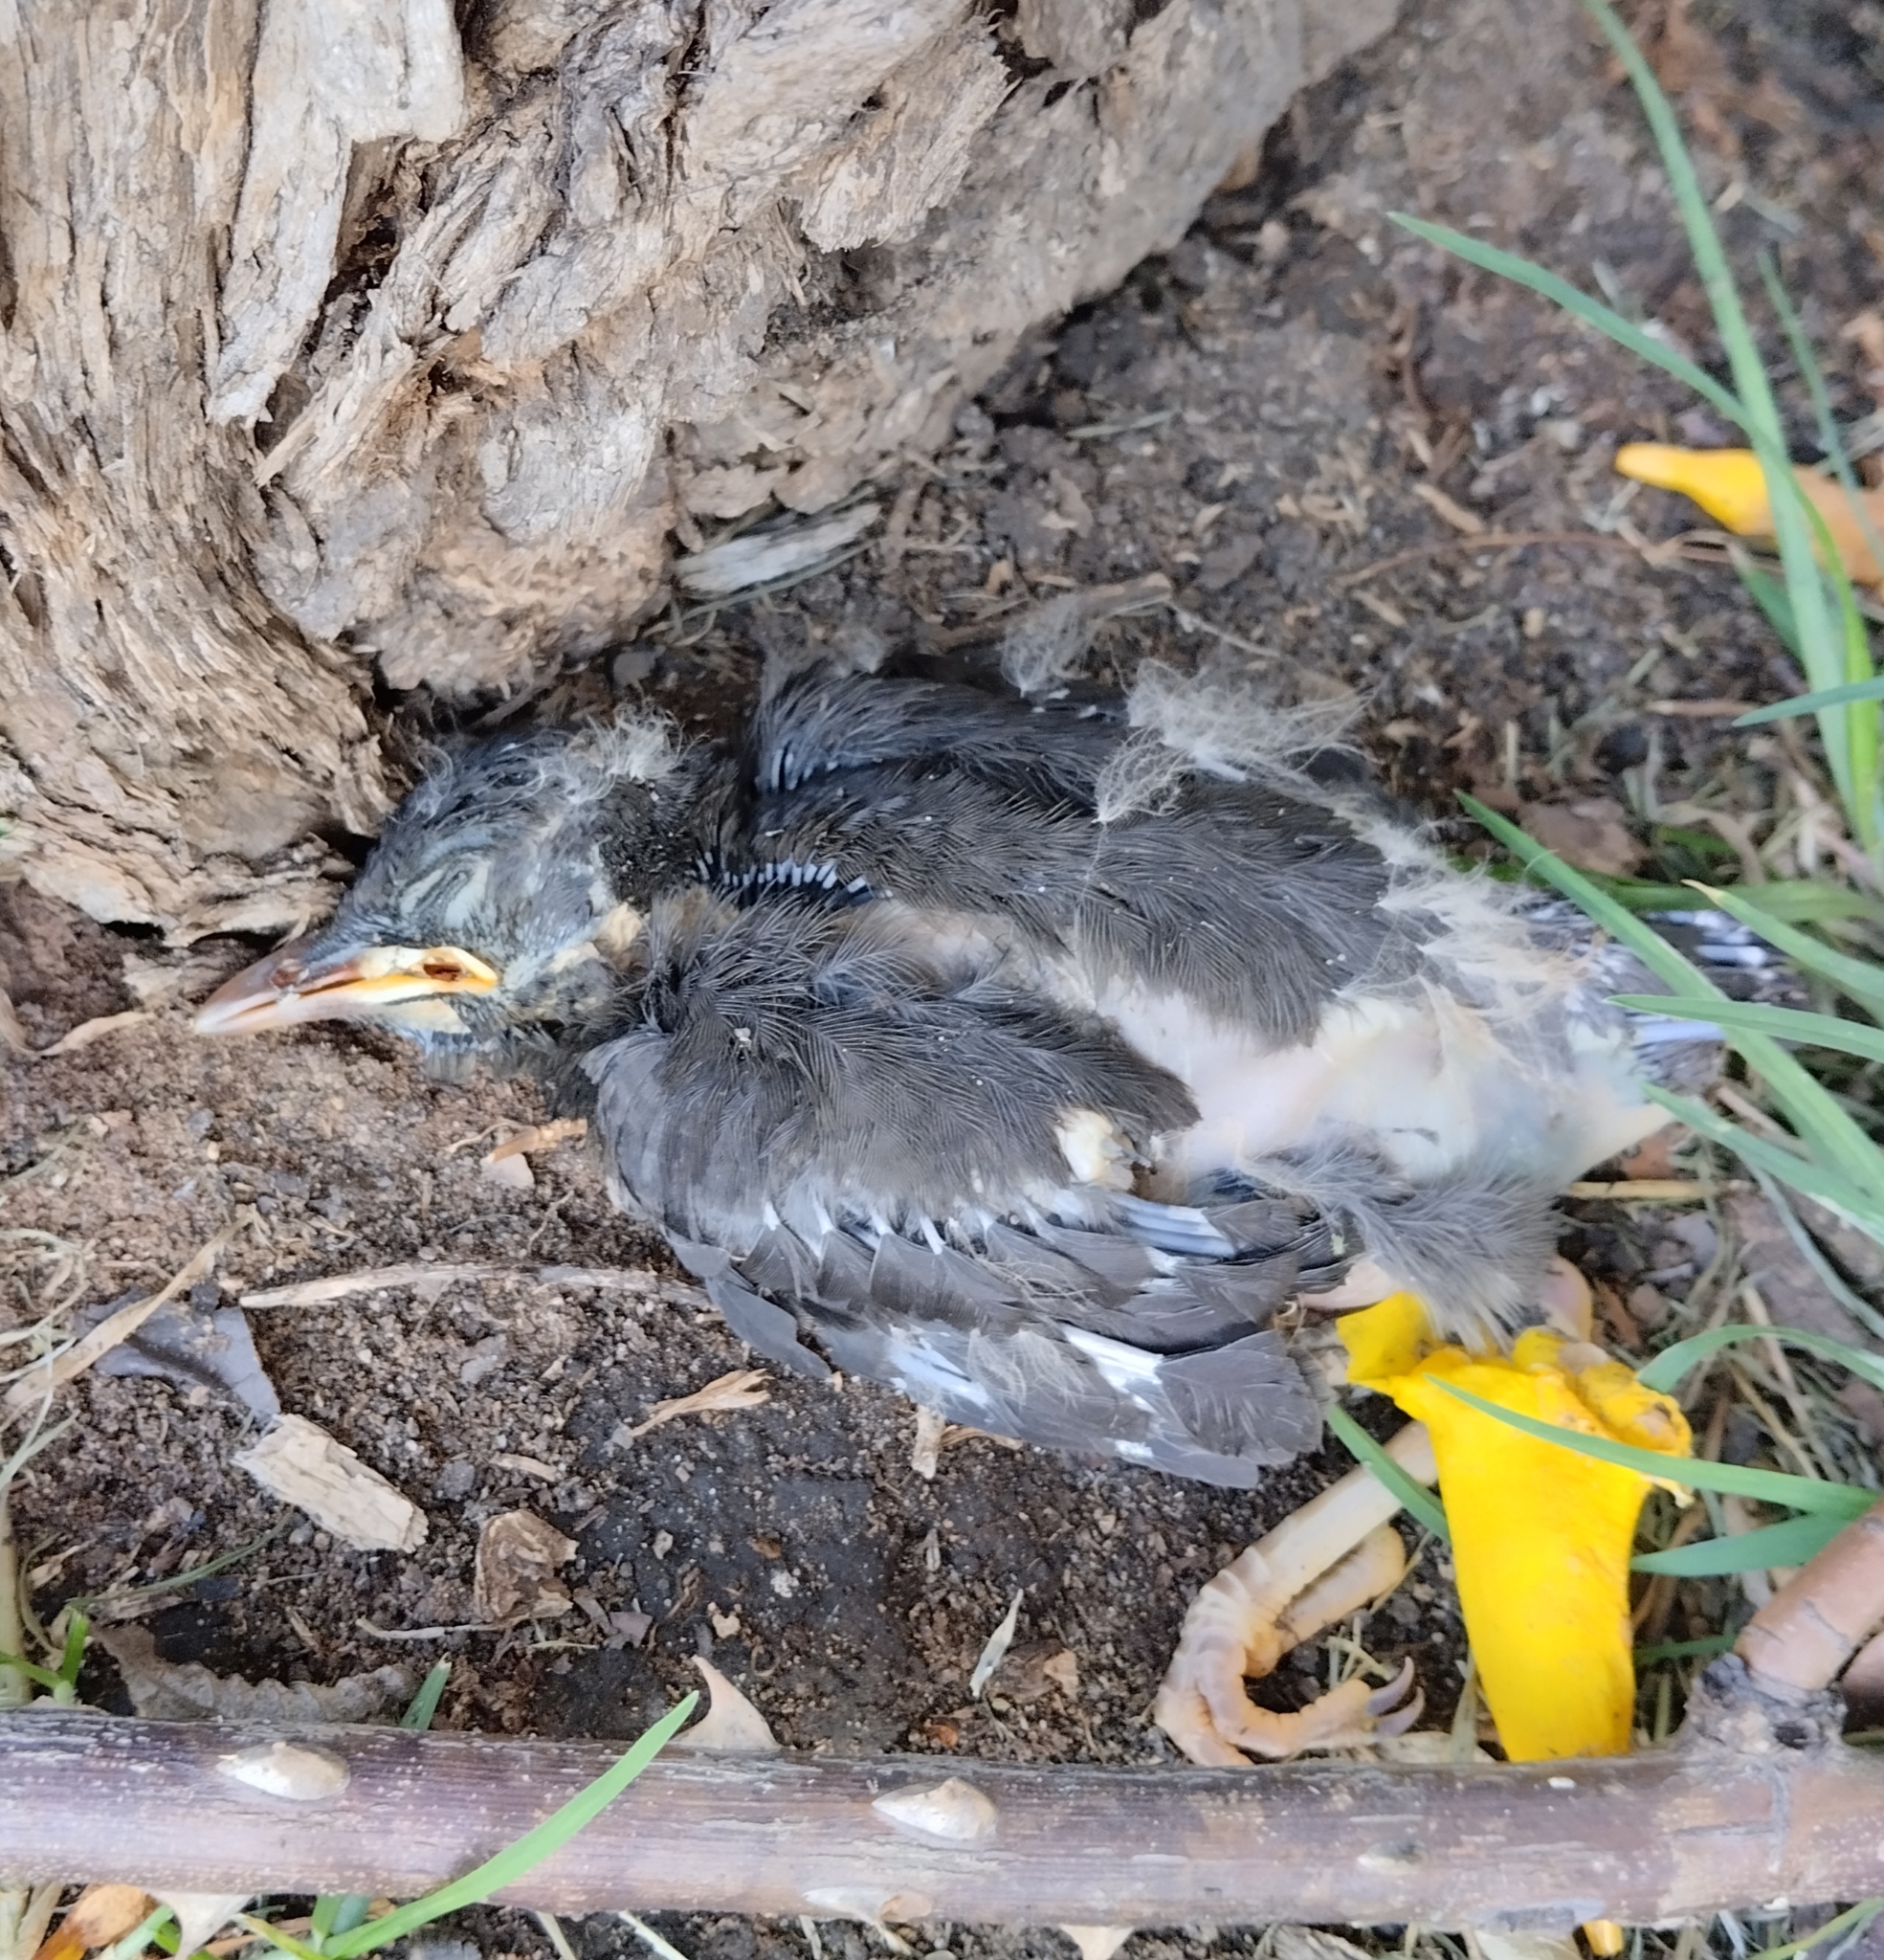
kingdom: Animalia
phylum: Chordata
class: Aves
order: Passeriformes
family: Turdidae
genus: Turdus
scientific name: Turdus fuscater
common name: Great thrush
